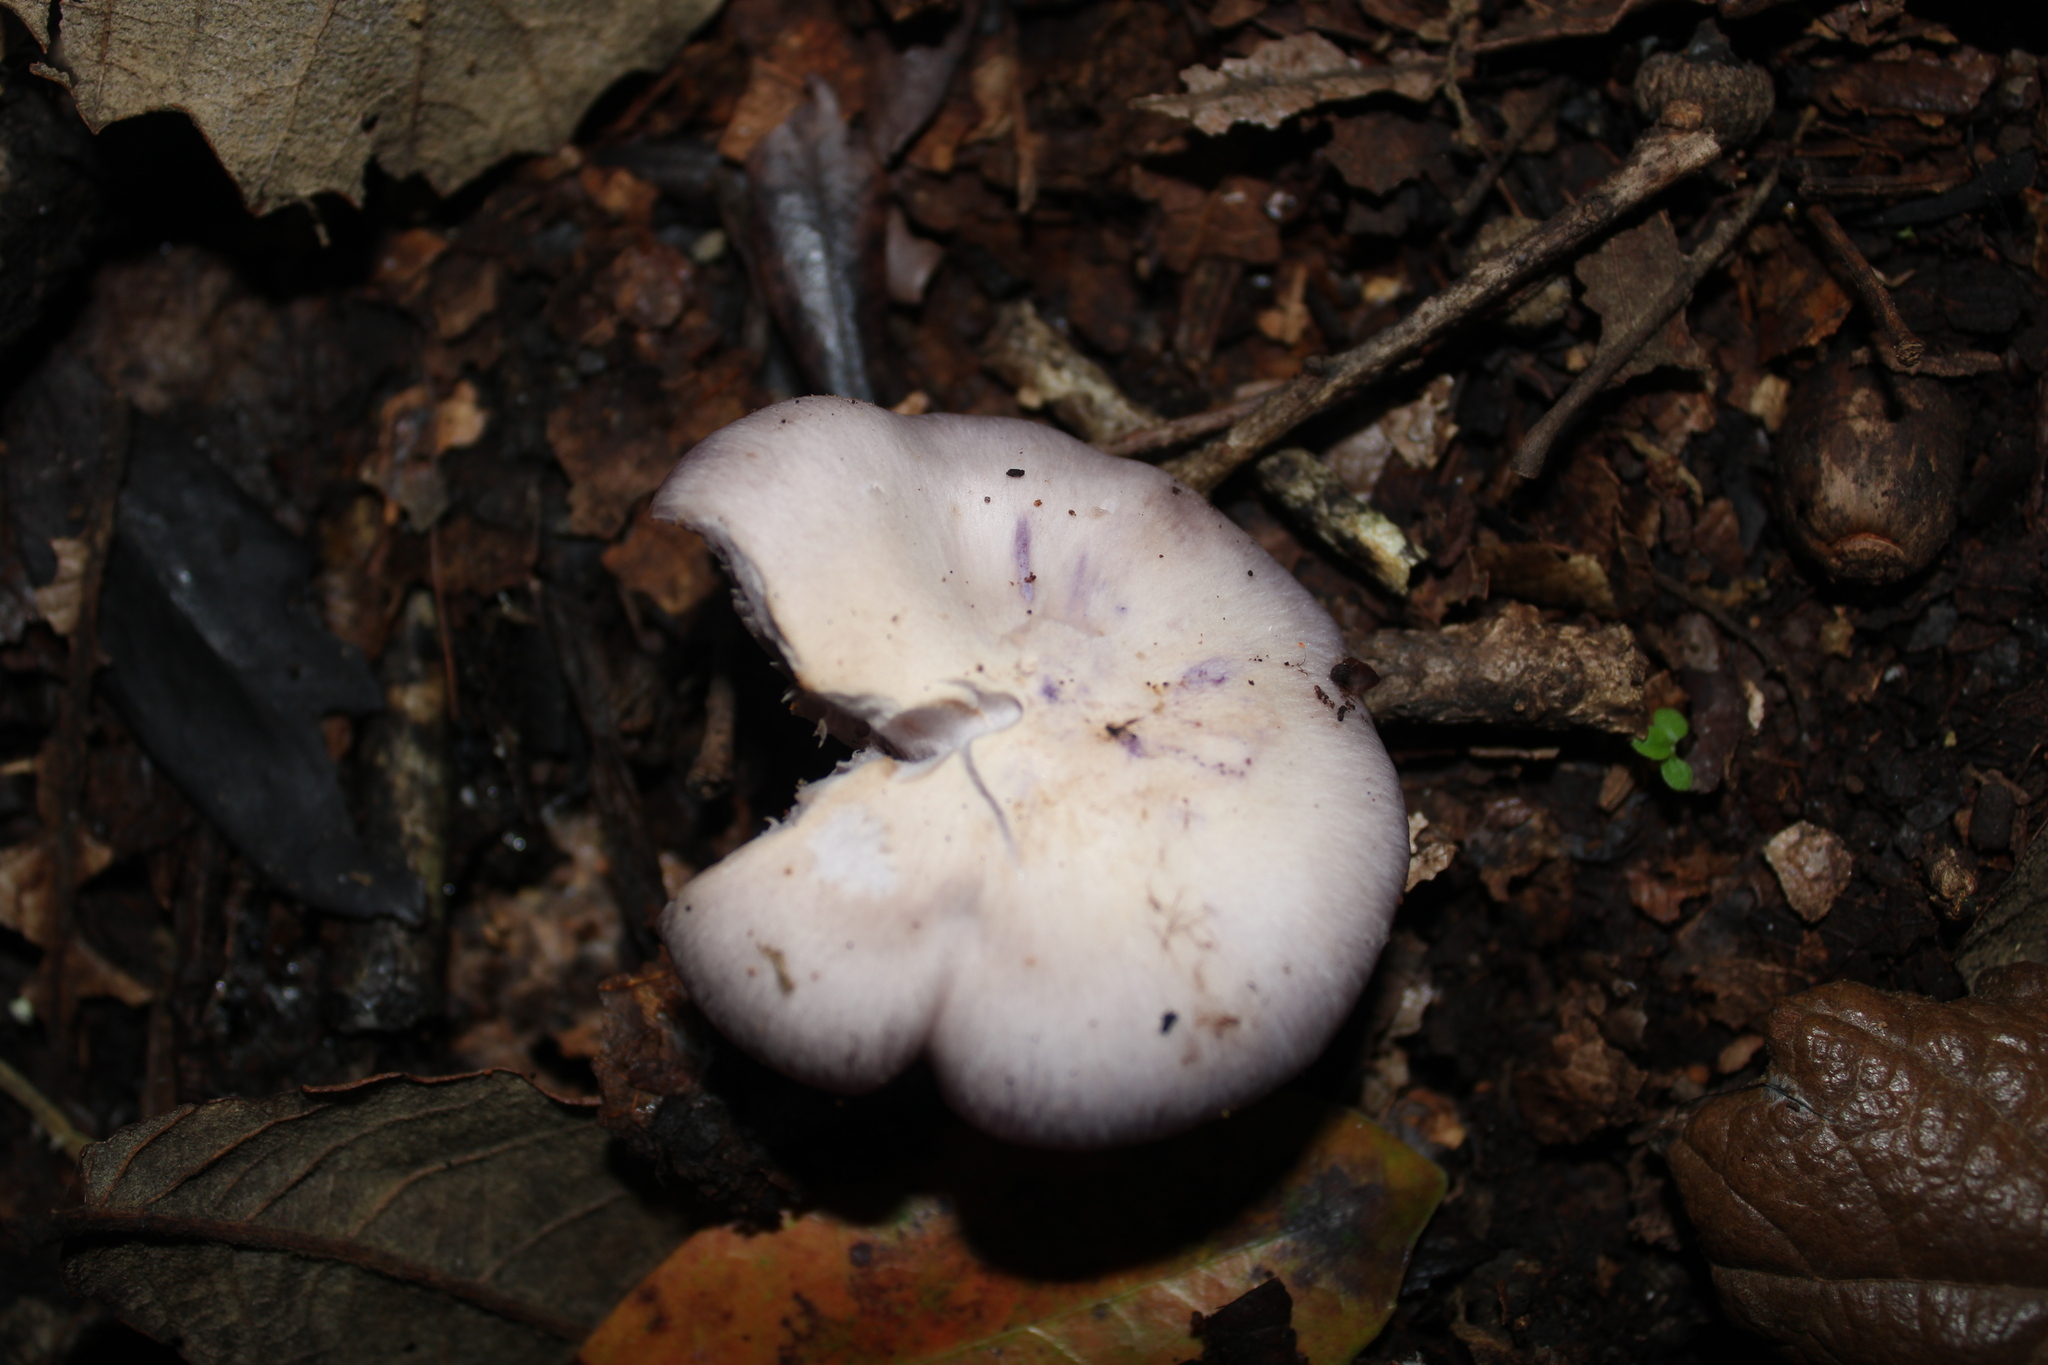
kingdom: Fungi
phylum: Basidiomycota
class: Agaricomycetes
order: Agaricales
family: Tricholomataceae
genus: Collybia
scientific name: Collybia
